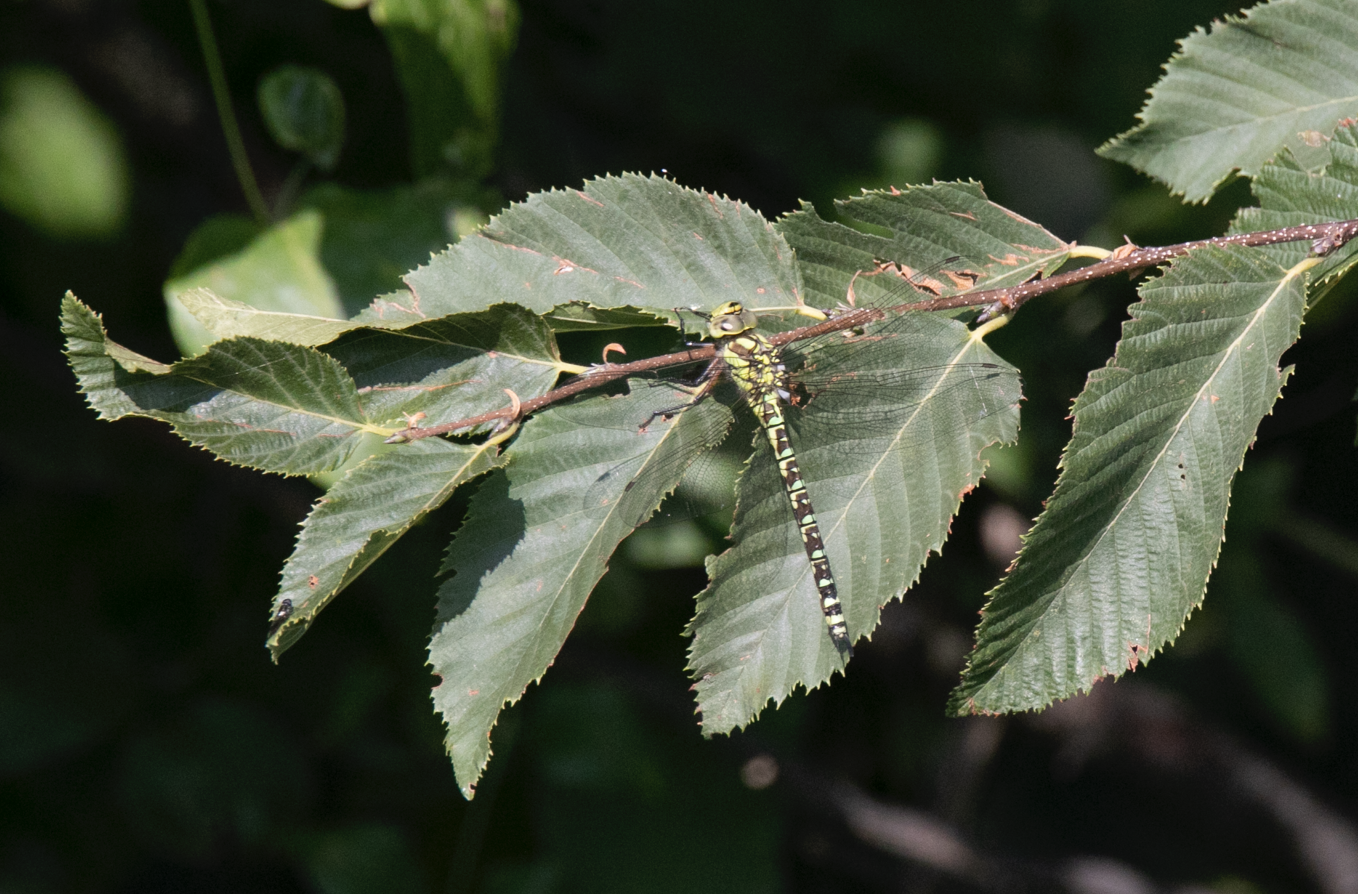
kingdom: Animalia
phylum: Arthropoda
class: Insecta
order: Odonata
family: Aeshnidae
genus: Aeshna
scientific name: Aeshna cyanea
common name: Southern hawker
